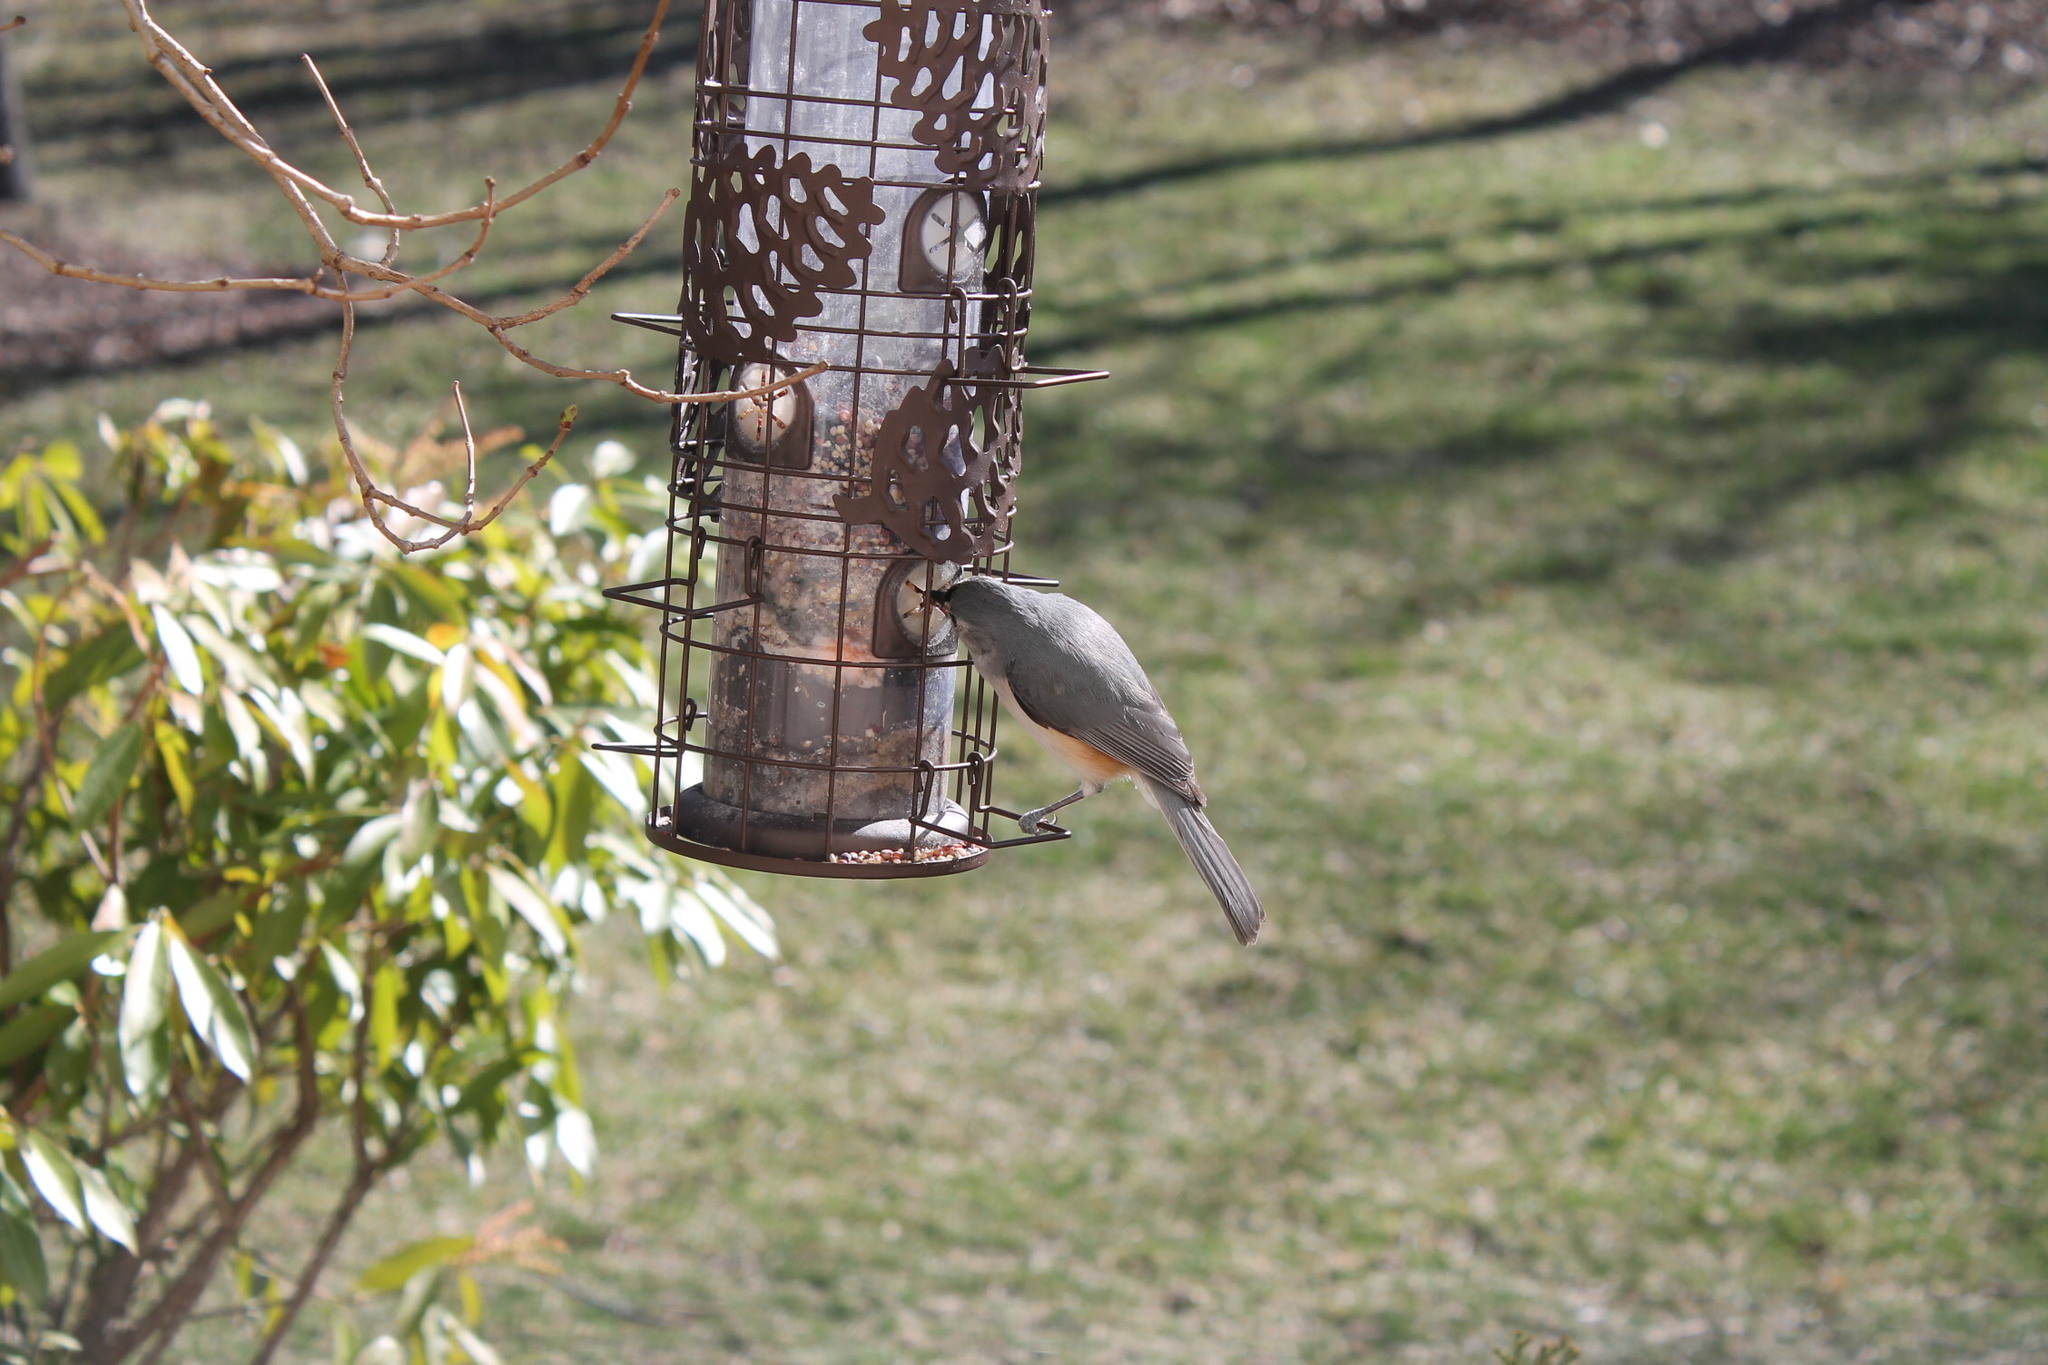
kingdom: Animalia
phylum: Chordata
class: Aves
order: Passeriformes
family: Paridae
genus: Baeolophus
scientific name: Baeolophus bicolor
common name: Tufted titmouse
